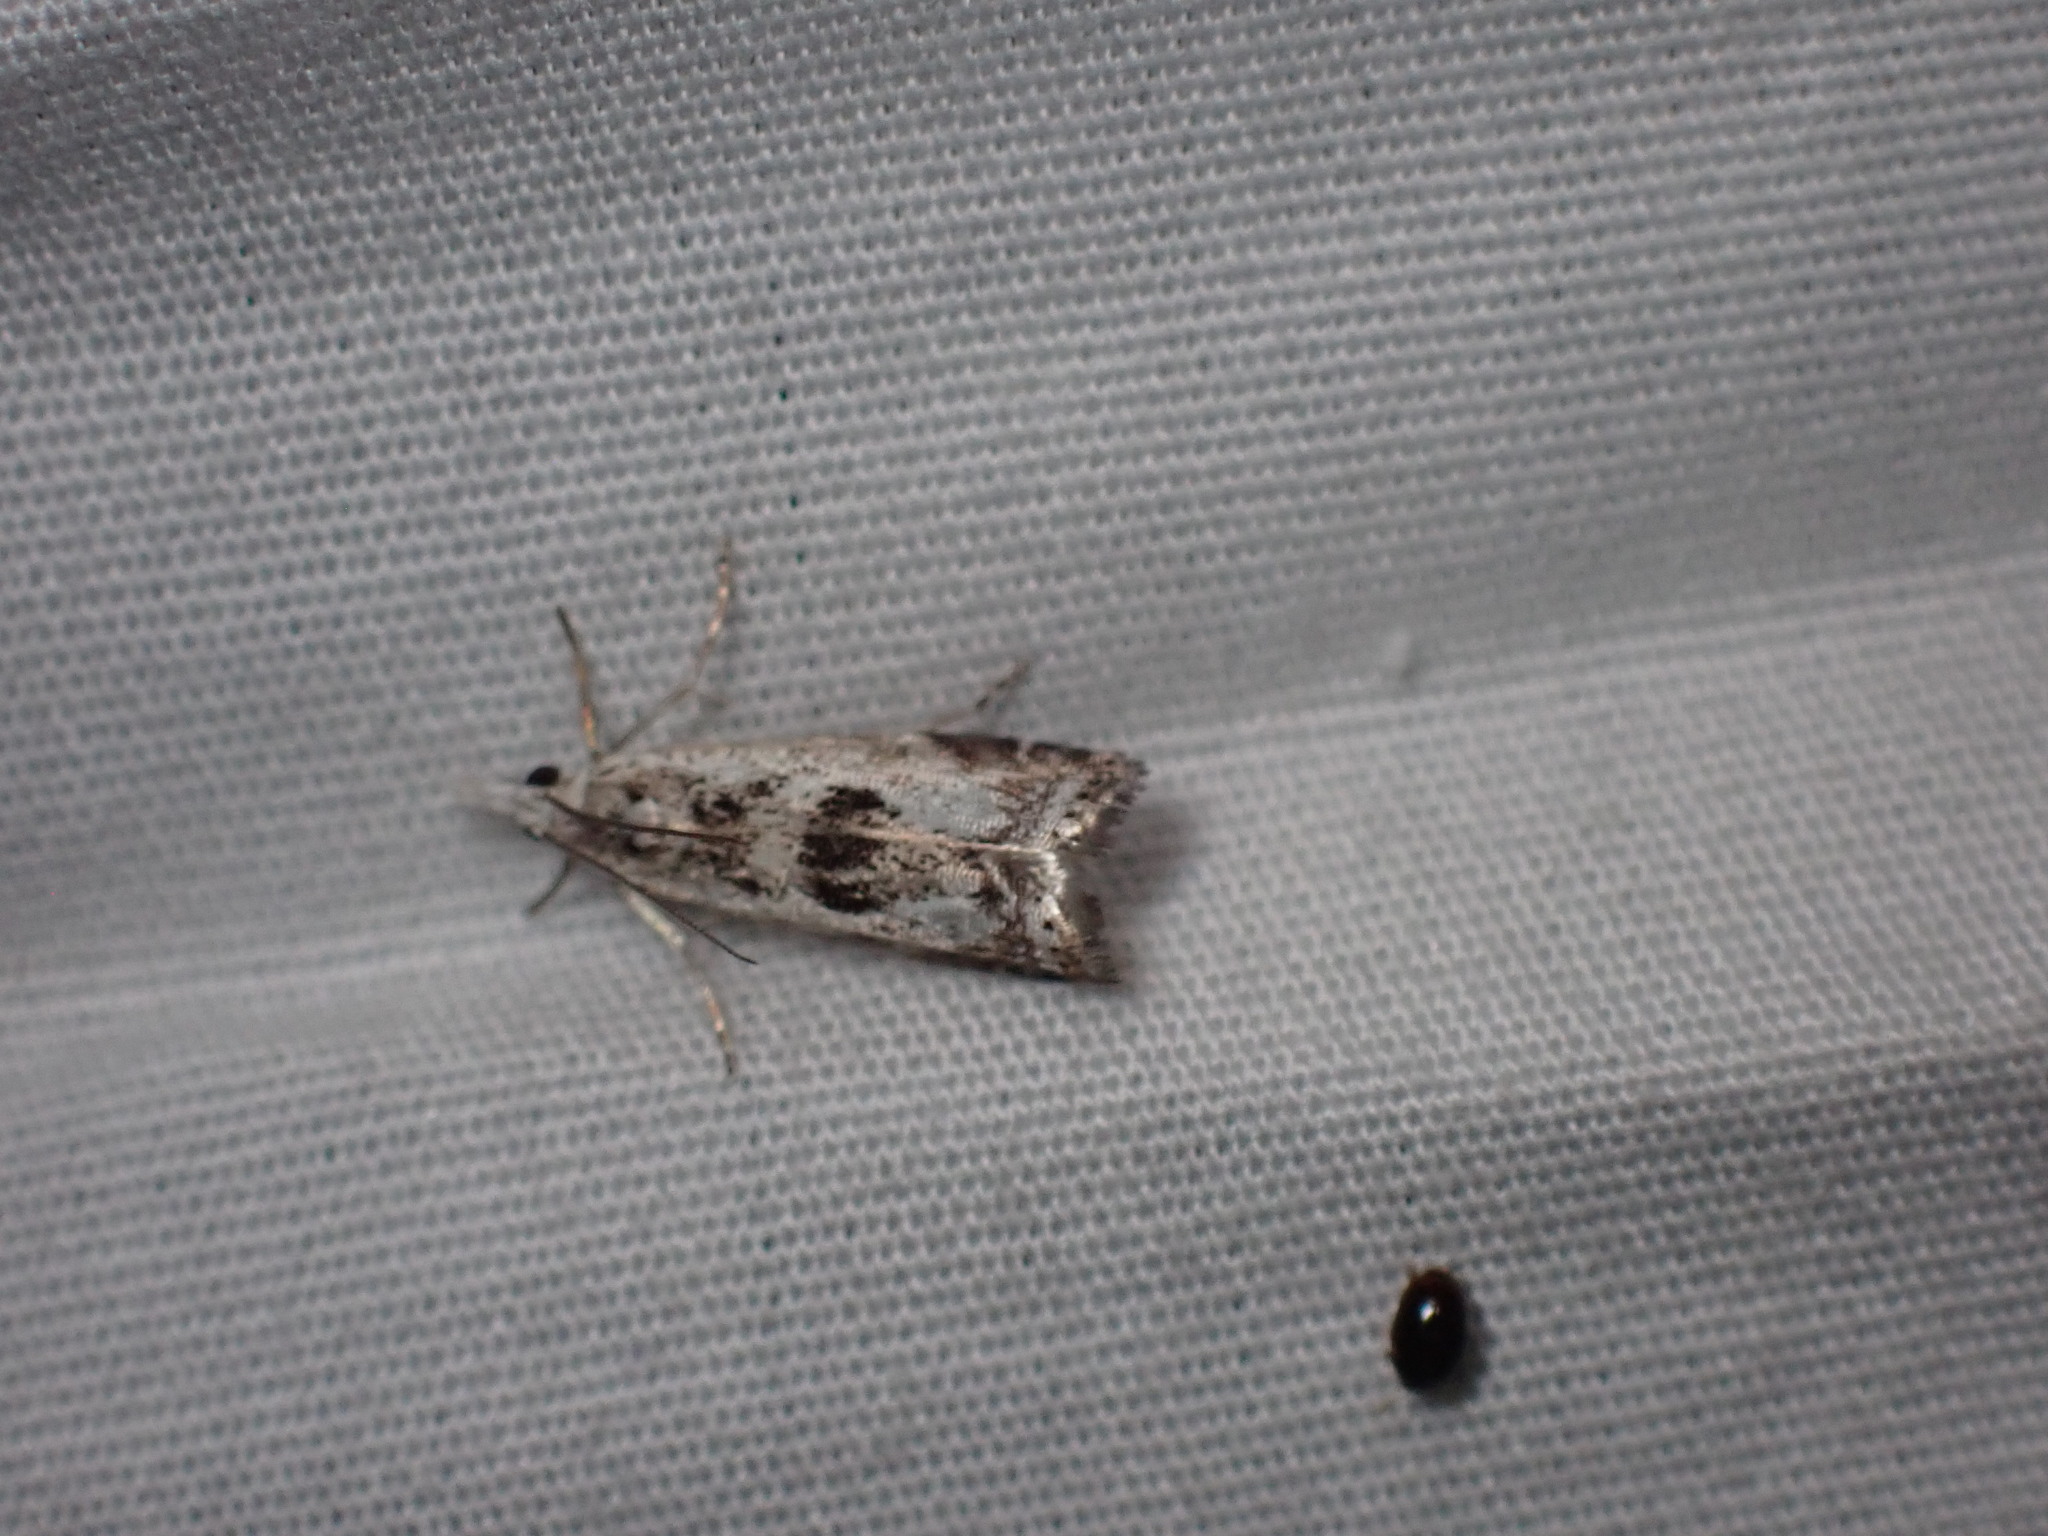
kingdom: Animalia
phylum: Arthropoda
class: Insecta
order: Lepidoptera
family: Crambidae
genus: Microcrambus
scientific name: Microcrambus elegans
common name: Elegant grass-veneer
